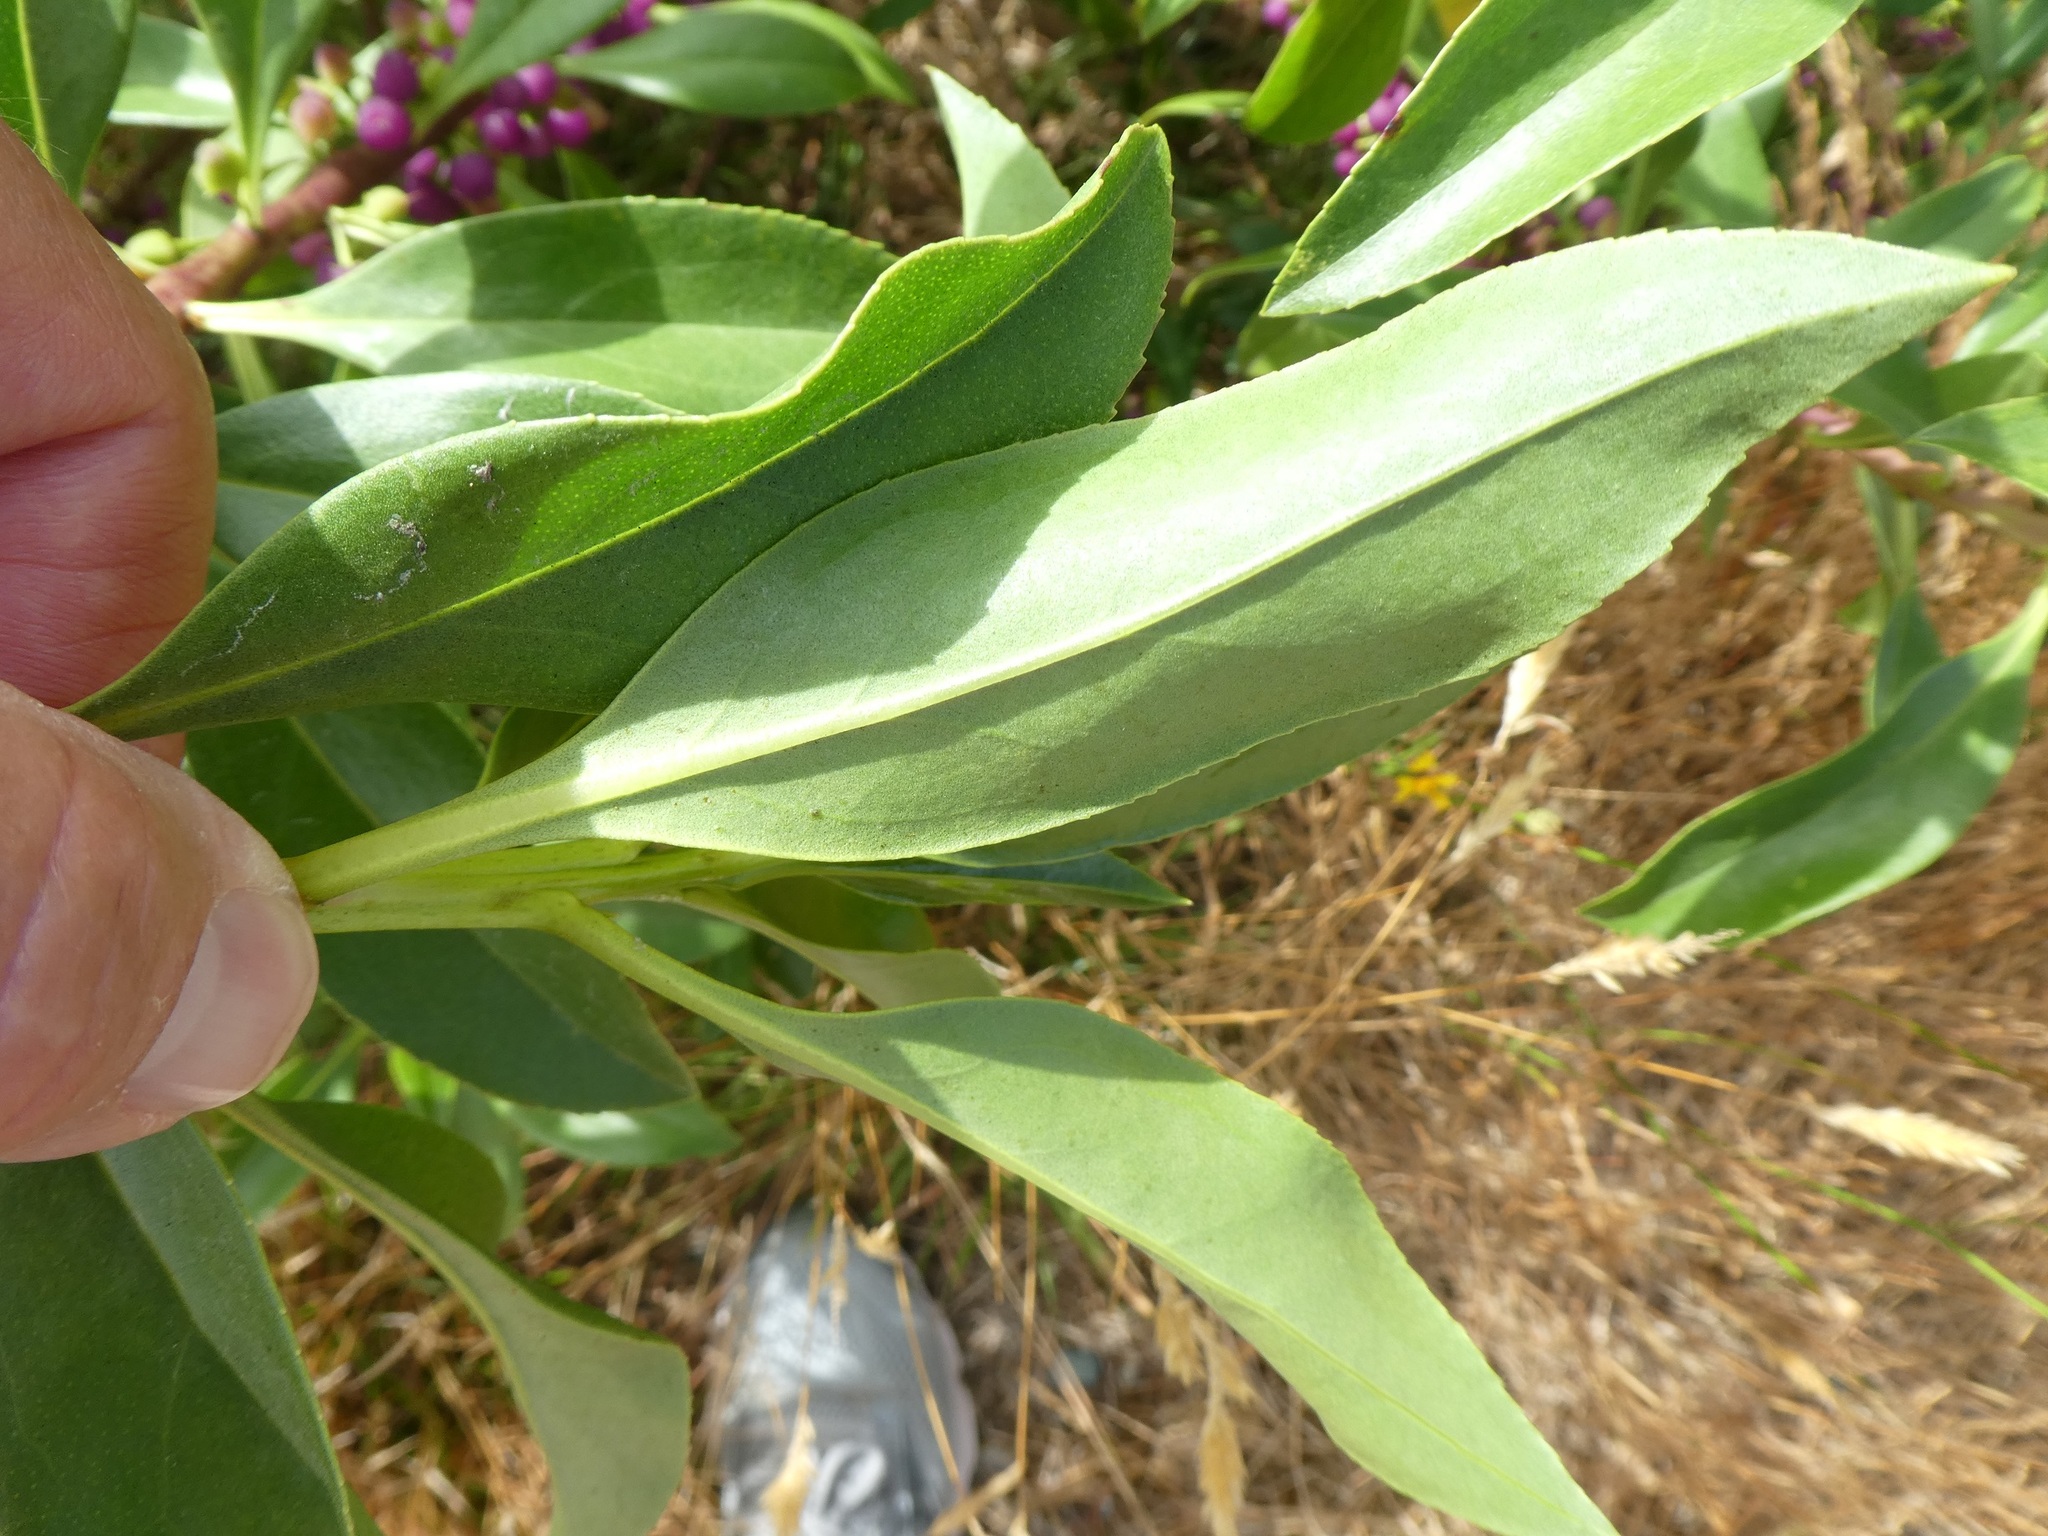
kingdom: Plantae
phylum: Tracheophyta
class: Magnoliopsida
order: Lamiales
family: Scrophulariaceae
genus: Myoporum
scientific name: Myoporum insulare
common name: Common boobialla
